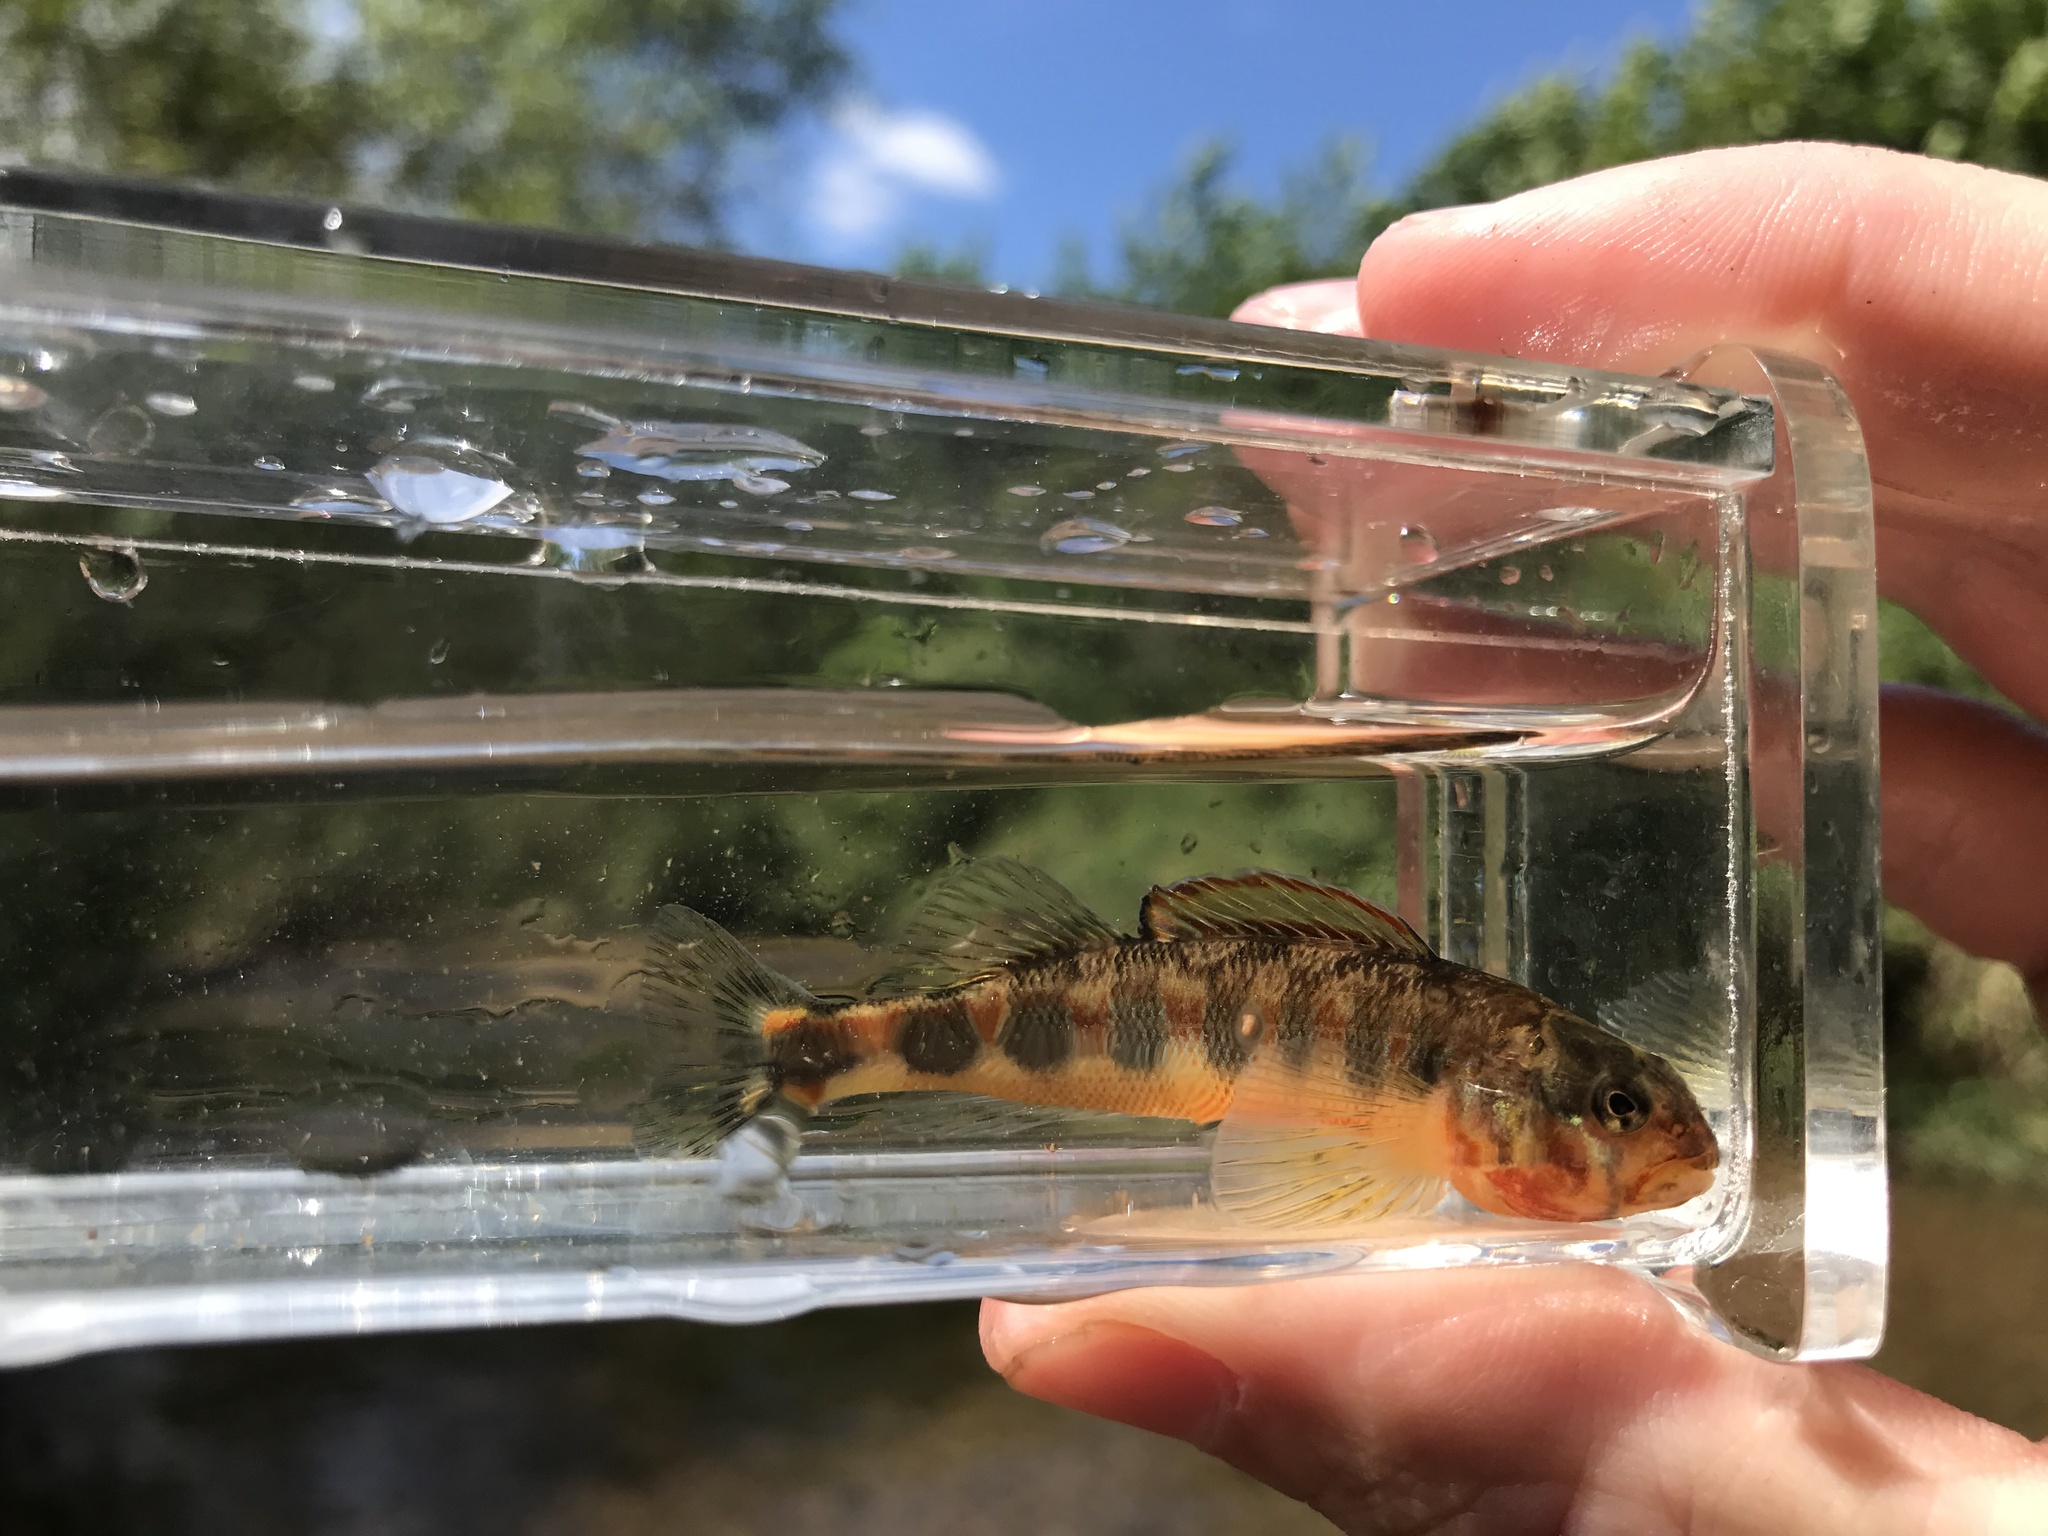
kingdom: Animalia
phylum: Chordata
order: Perciformes
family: Percidae
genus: Percina
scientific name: Percina evides
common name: Gilt darter
